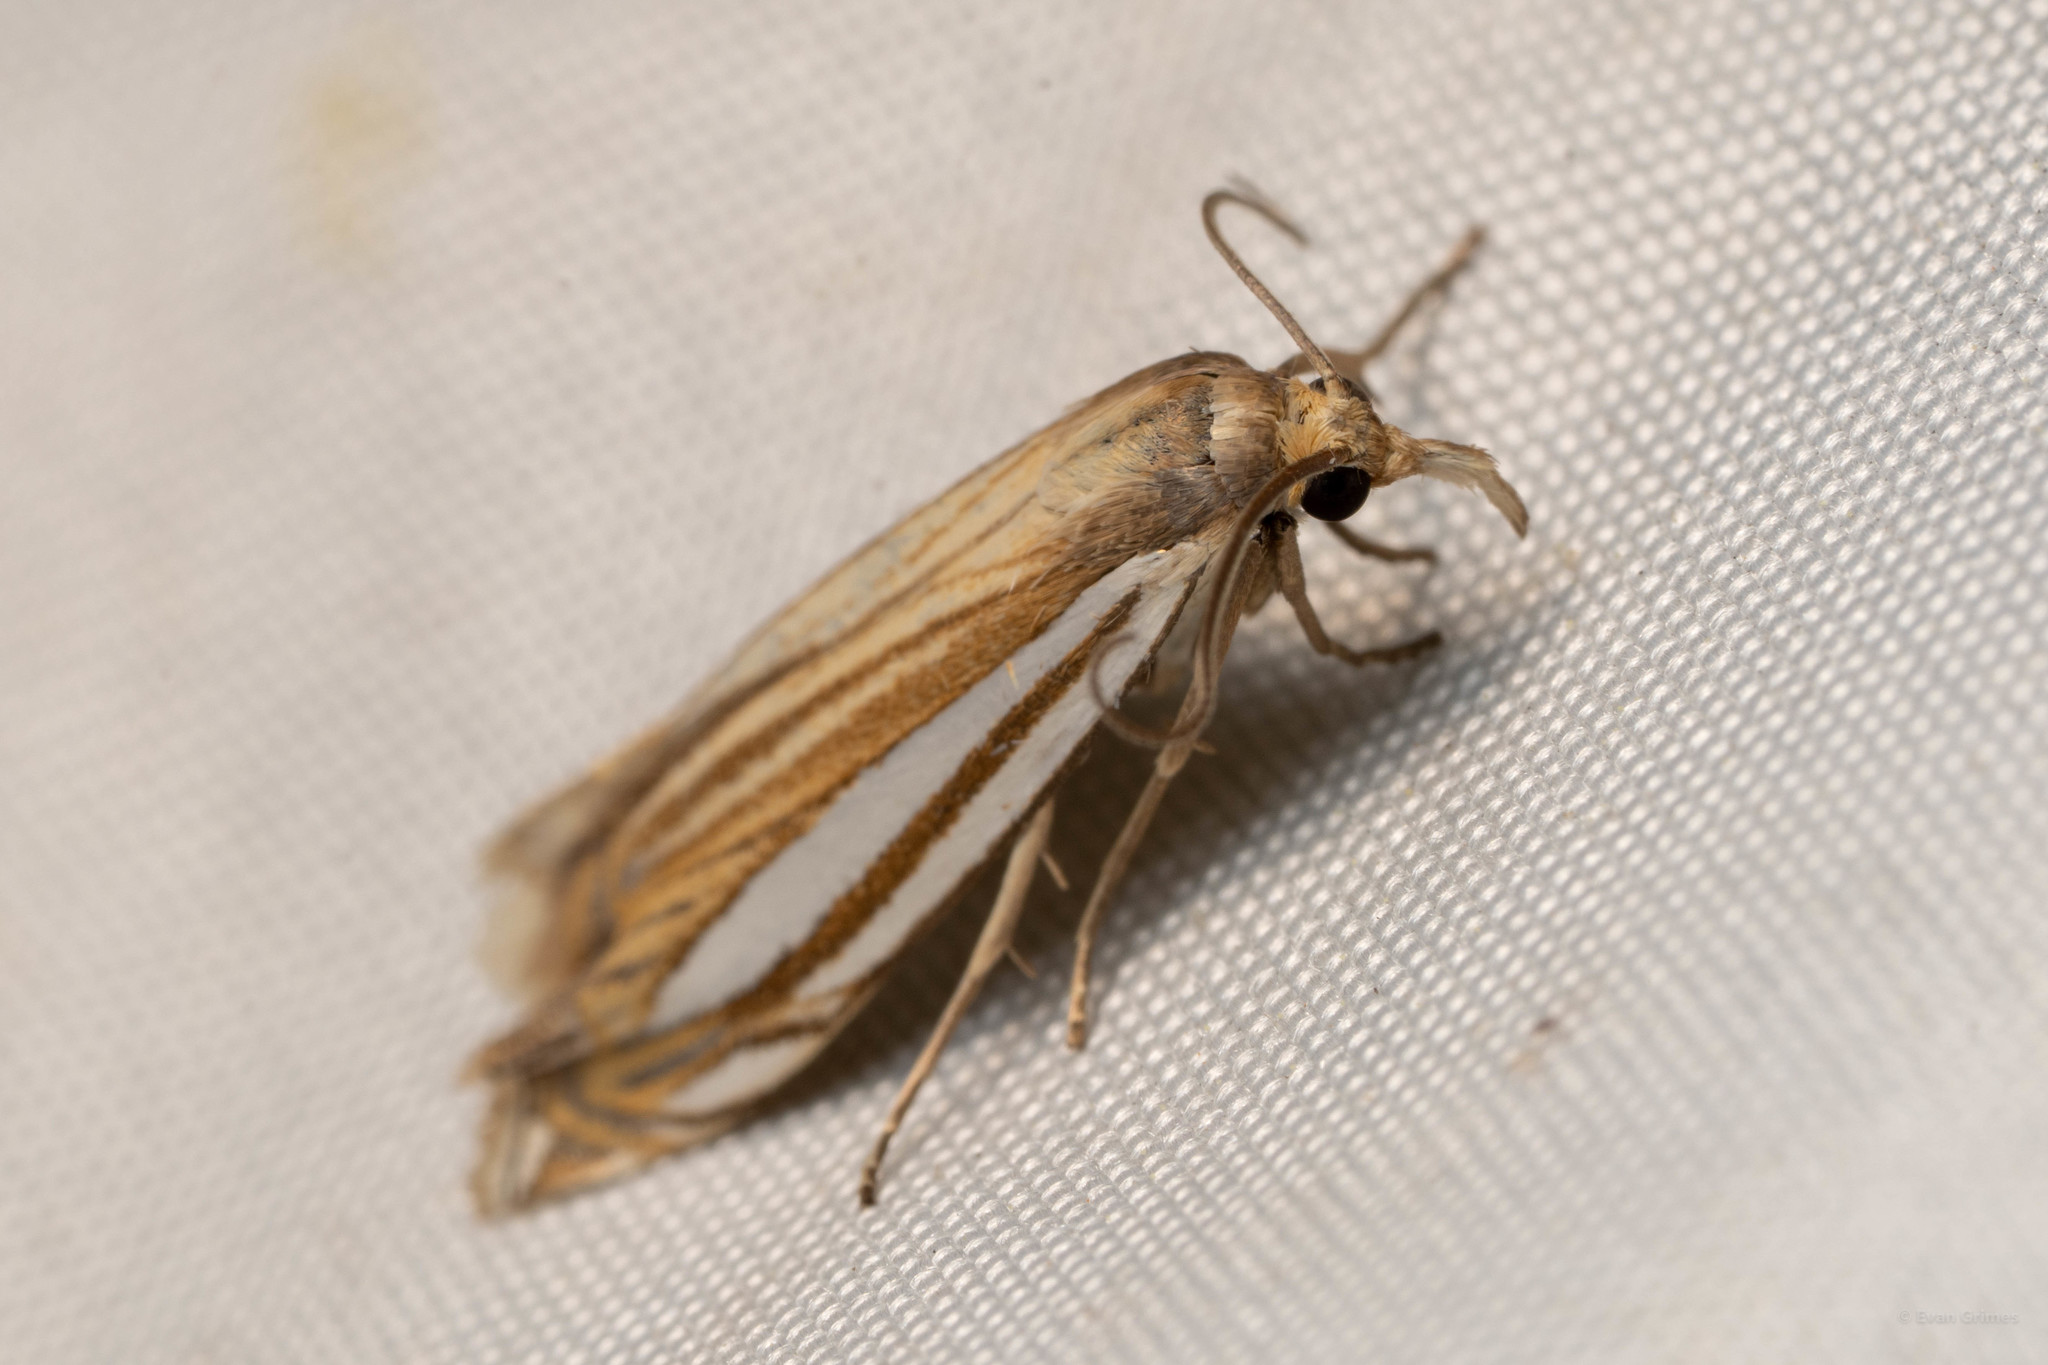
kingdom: Animalia
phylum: Arthropoda
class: Insecta
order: Lepidoptera
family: Crambidae
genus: Crambus
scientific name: Crambus laqueatellus
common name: Eastern grass-veneer
